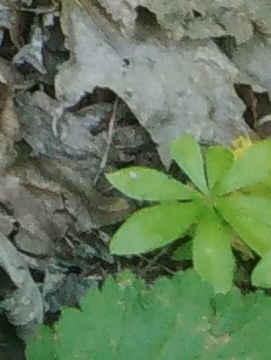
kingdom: Plantae
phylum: Tracheophyta
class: Magnoliopsida
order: Gentianales
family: Rubiaceae
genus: Galium
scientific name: Galium odoratum
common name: Sweet woodruff
